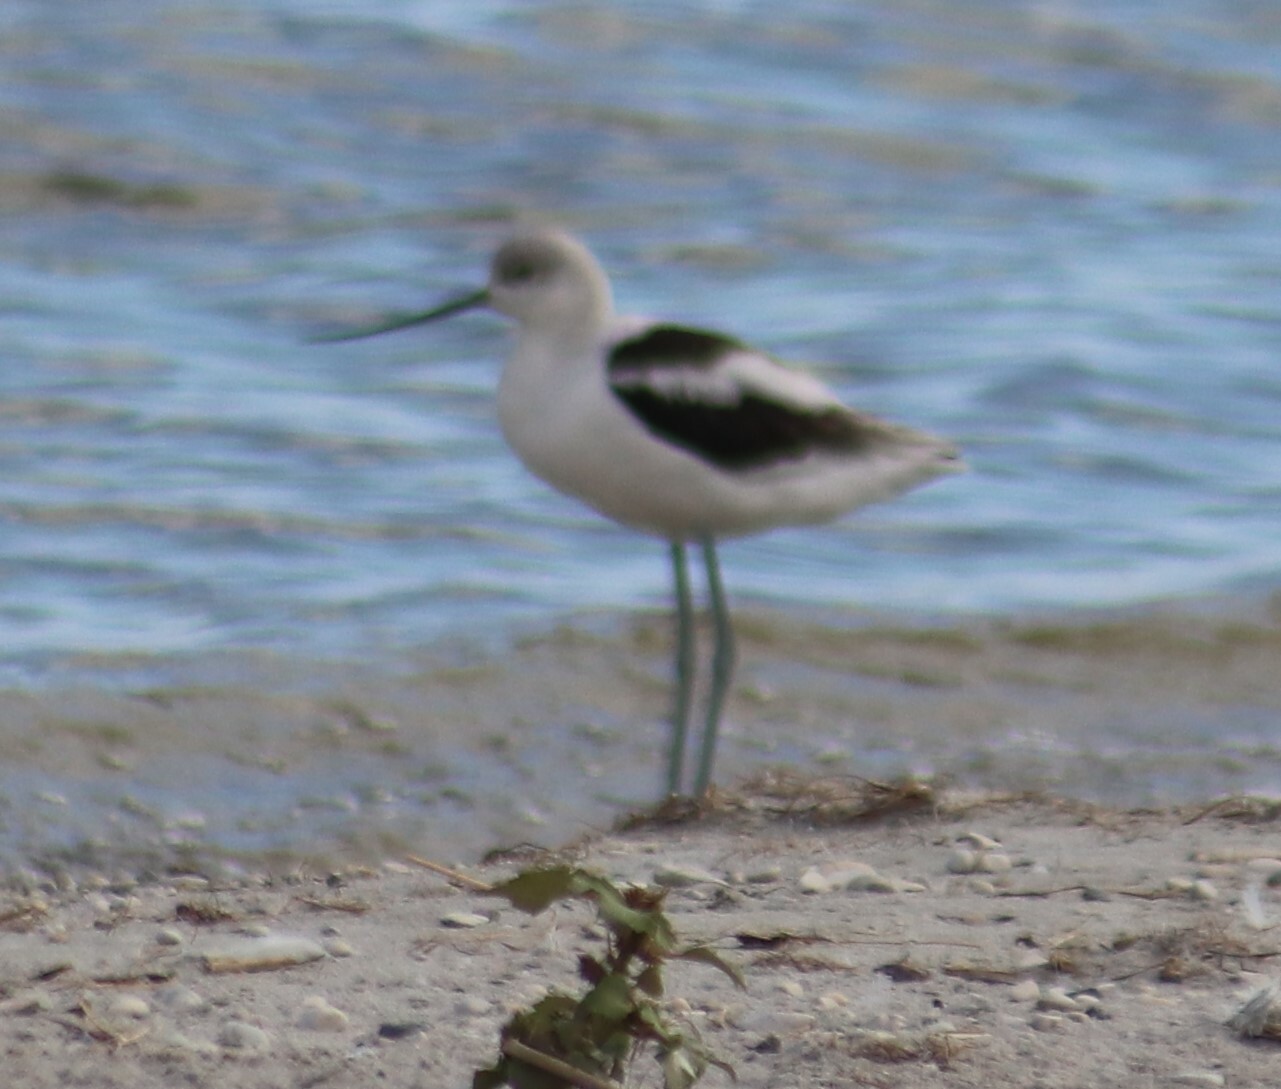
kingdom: Animalia
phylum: Chordata
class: Aves
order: Charadriiformes
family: Recurvirostridae
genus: Recurvirostra
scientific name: Recurvirostra americana
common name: American avocet
